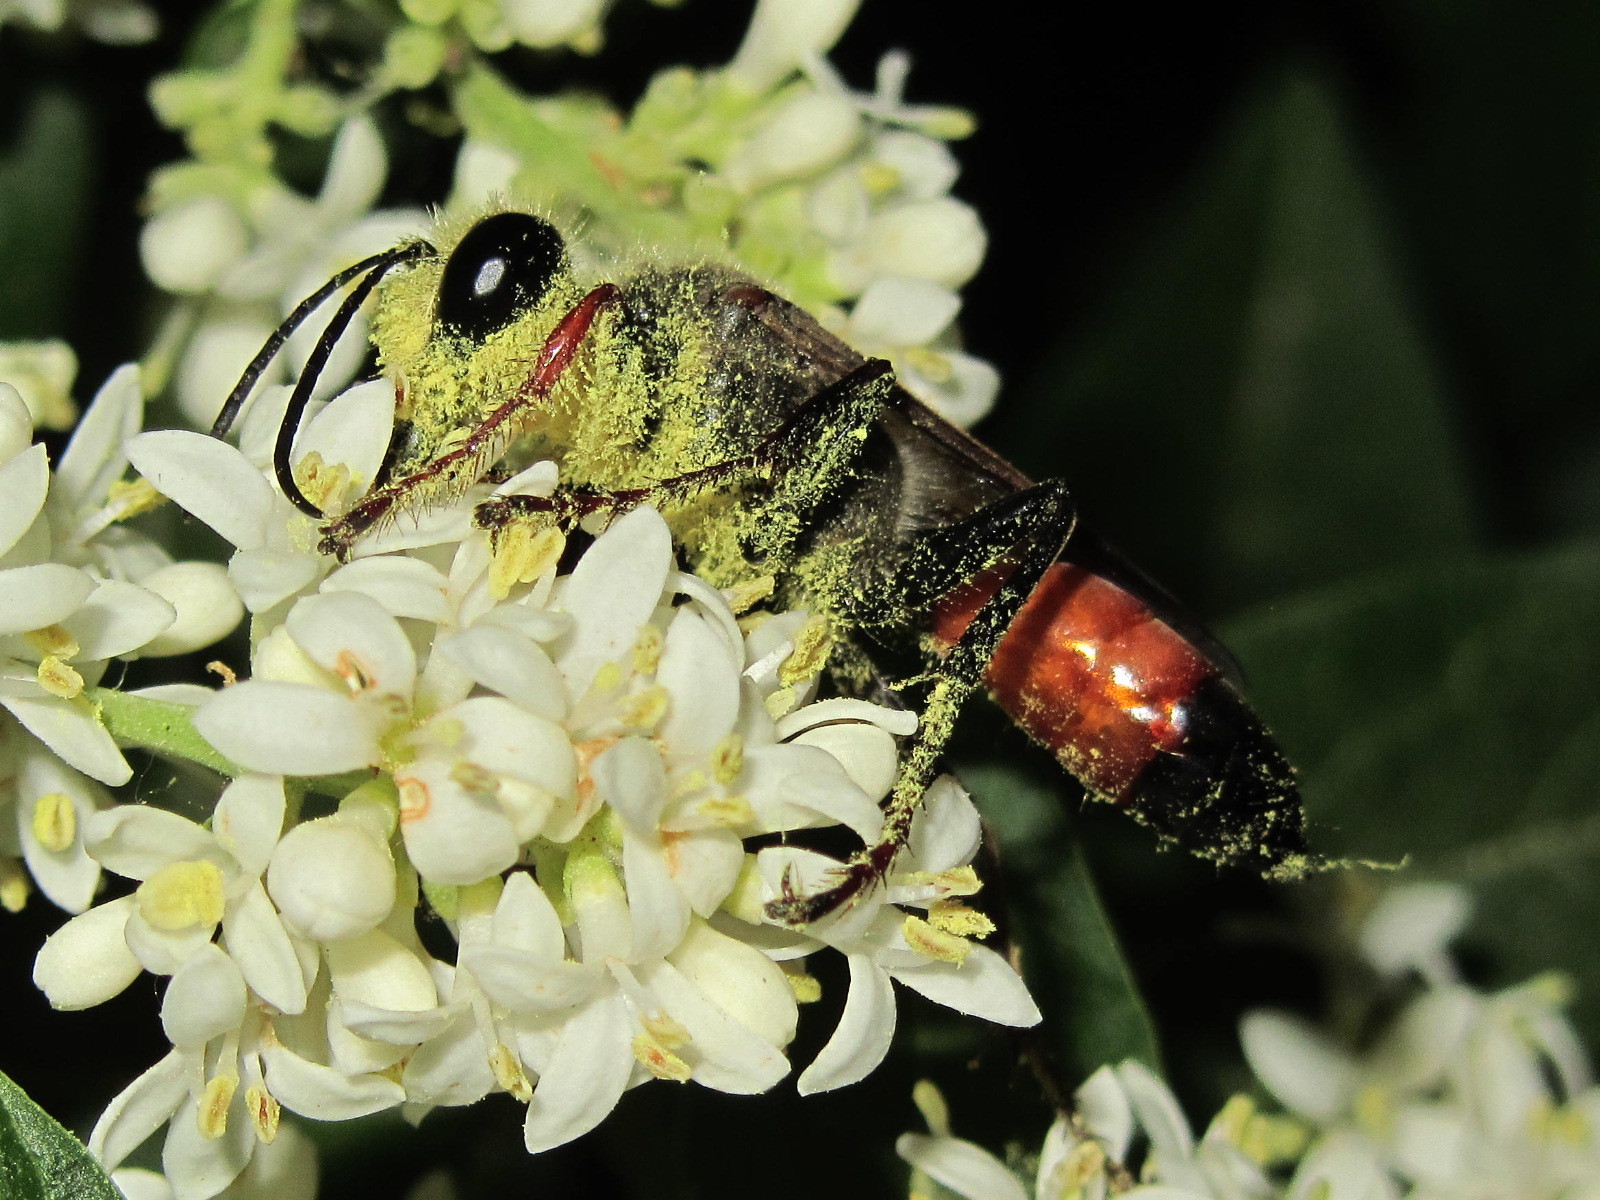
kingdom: Animalia
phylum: Arthropoda
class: Insecta
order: Hymenoptera
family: Sphecidae
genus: Sphex
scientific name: Sphex funerarius
